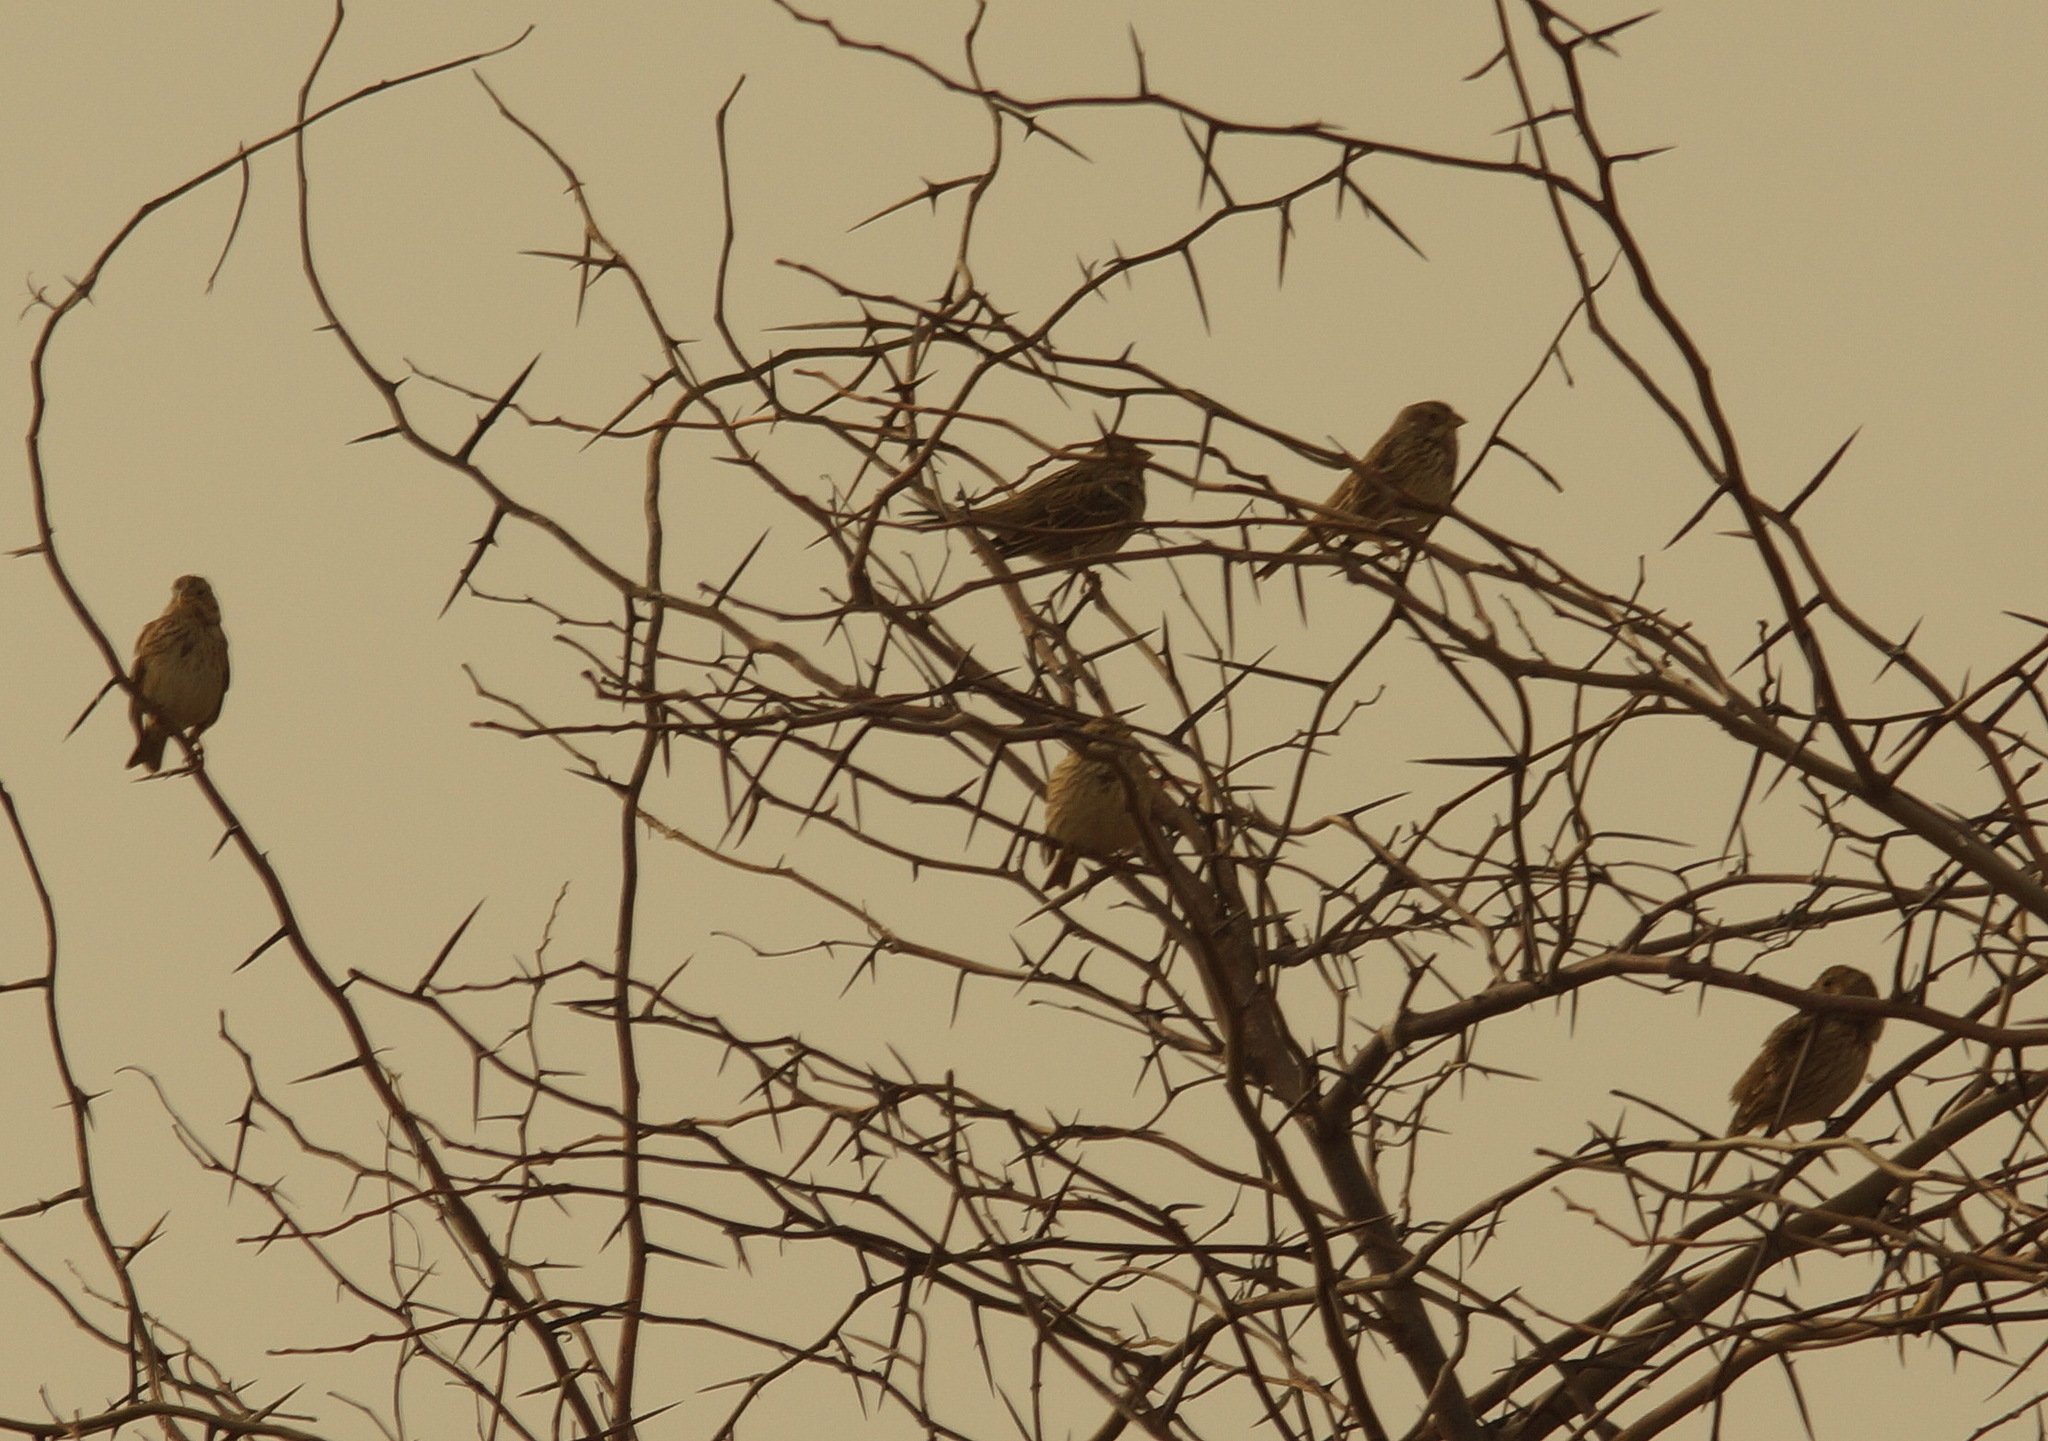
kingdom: Animalia
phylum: Chordata
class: Aves
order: Passeriformes
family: Emberizidae
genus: Emberiza
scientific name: Emberiza calandra
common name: Corn bunting
